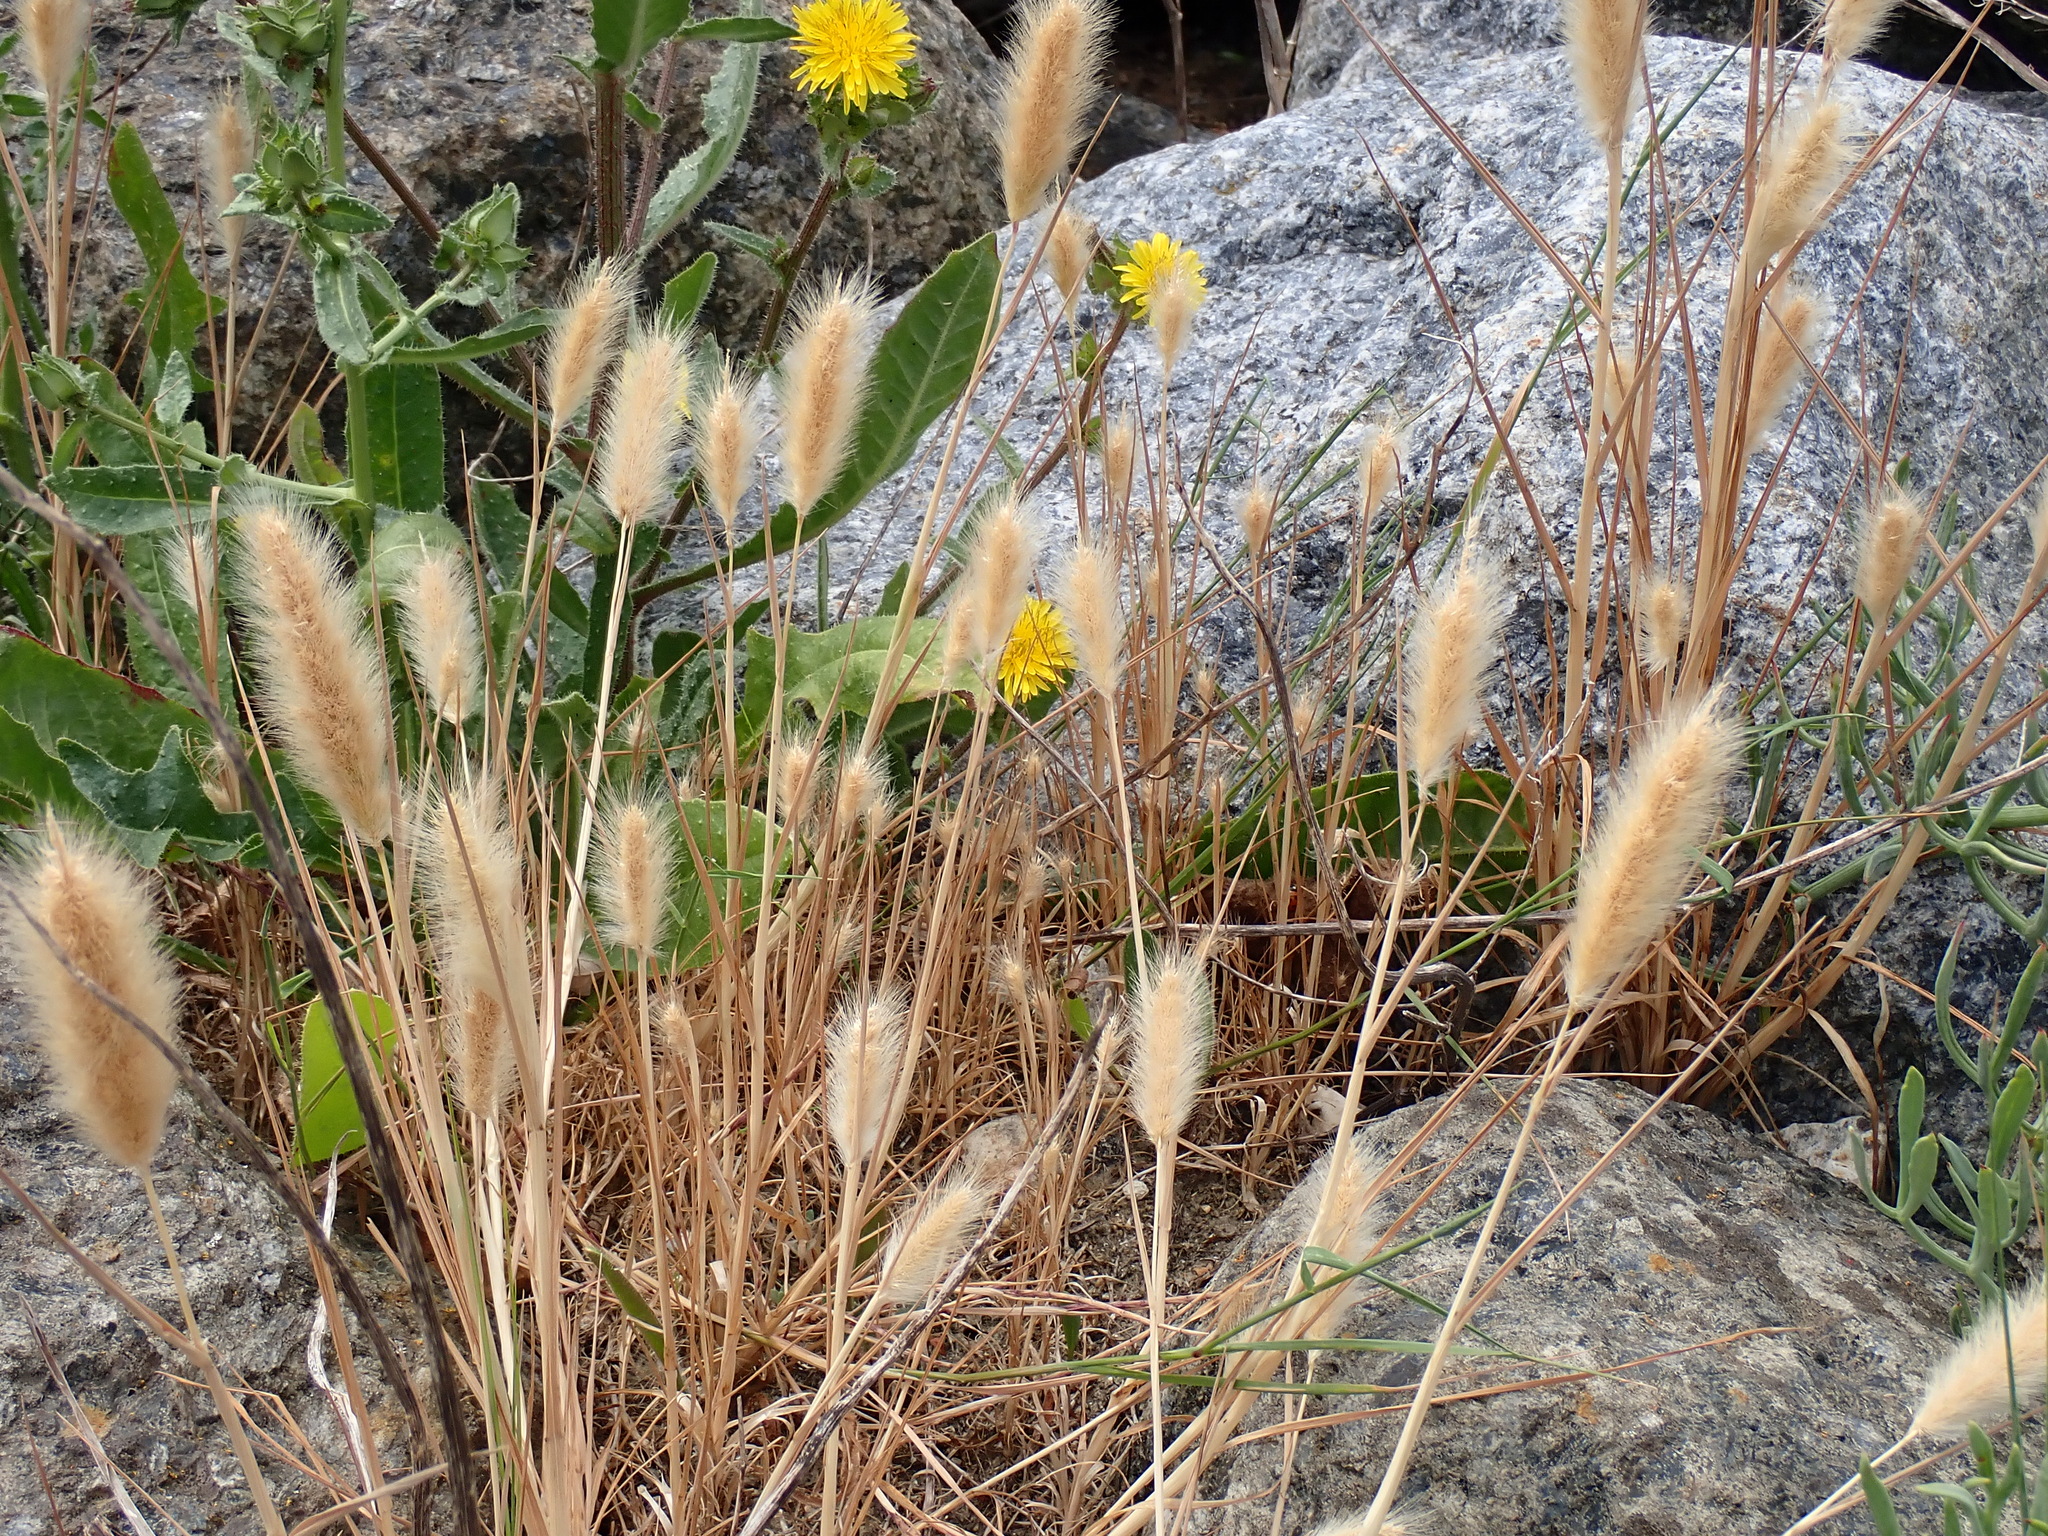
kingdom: Plantae
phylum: Tracheophyta
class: Liliopsida
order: Poales
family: Poaceae
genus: Polypogon
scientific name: Polypogon monspeliensis
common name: Annual rabbitsfoot grass
